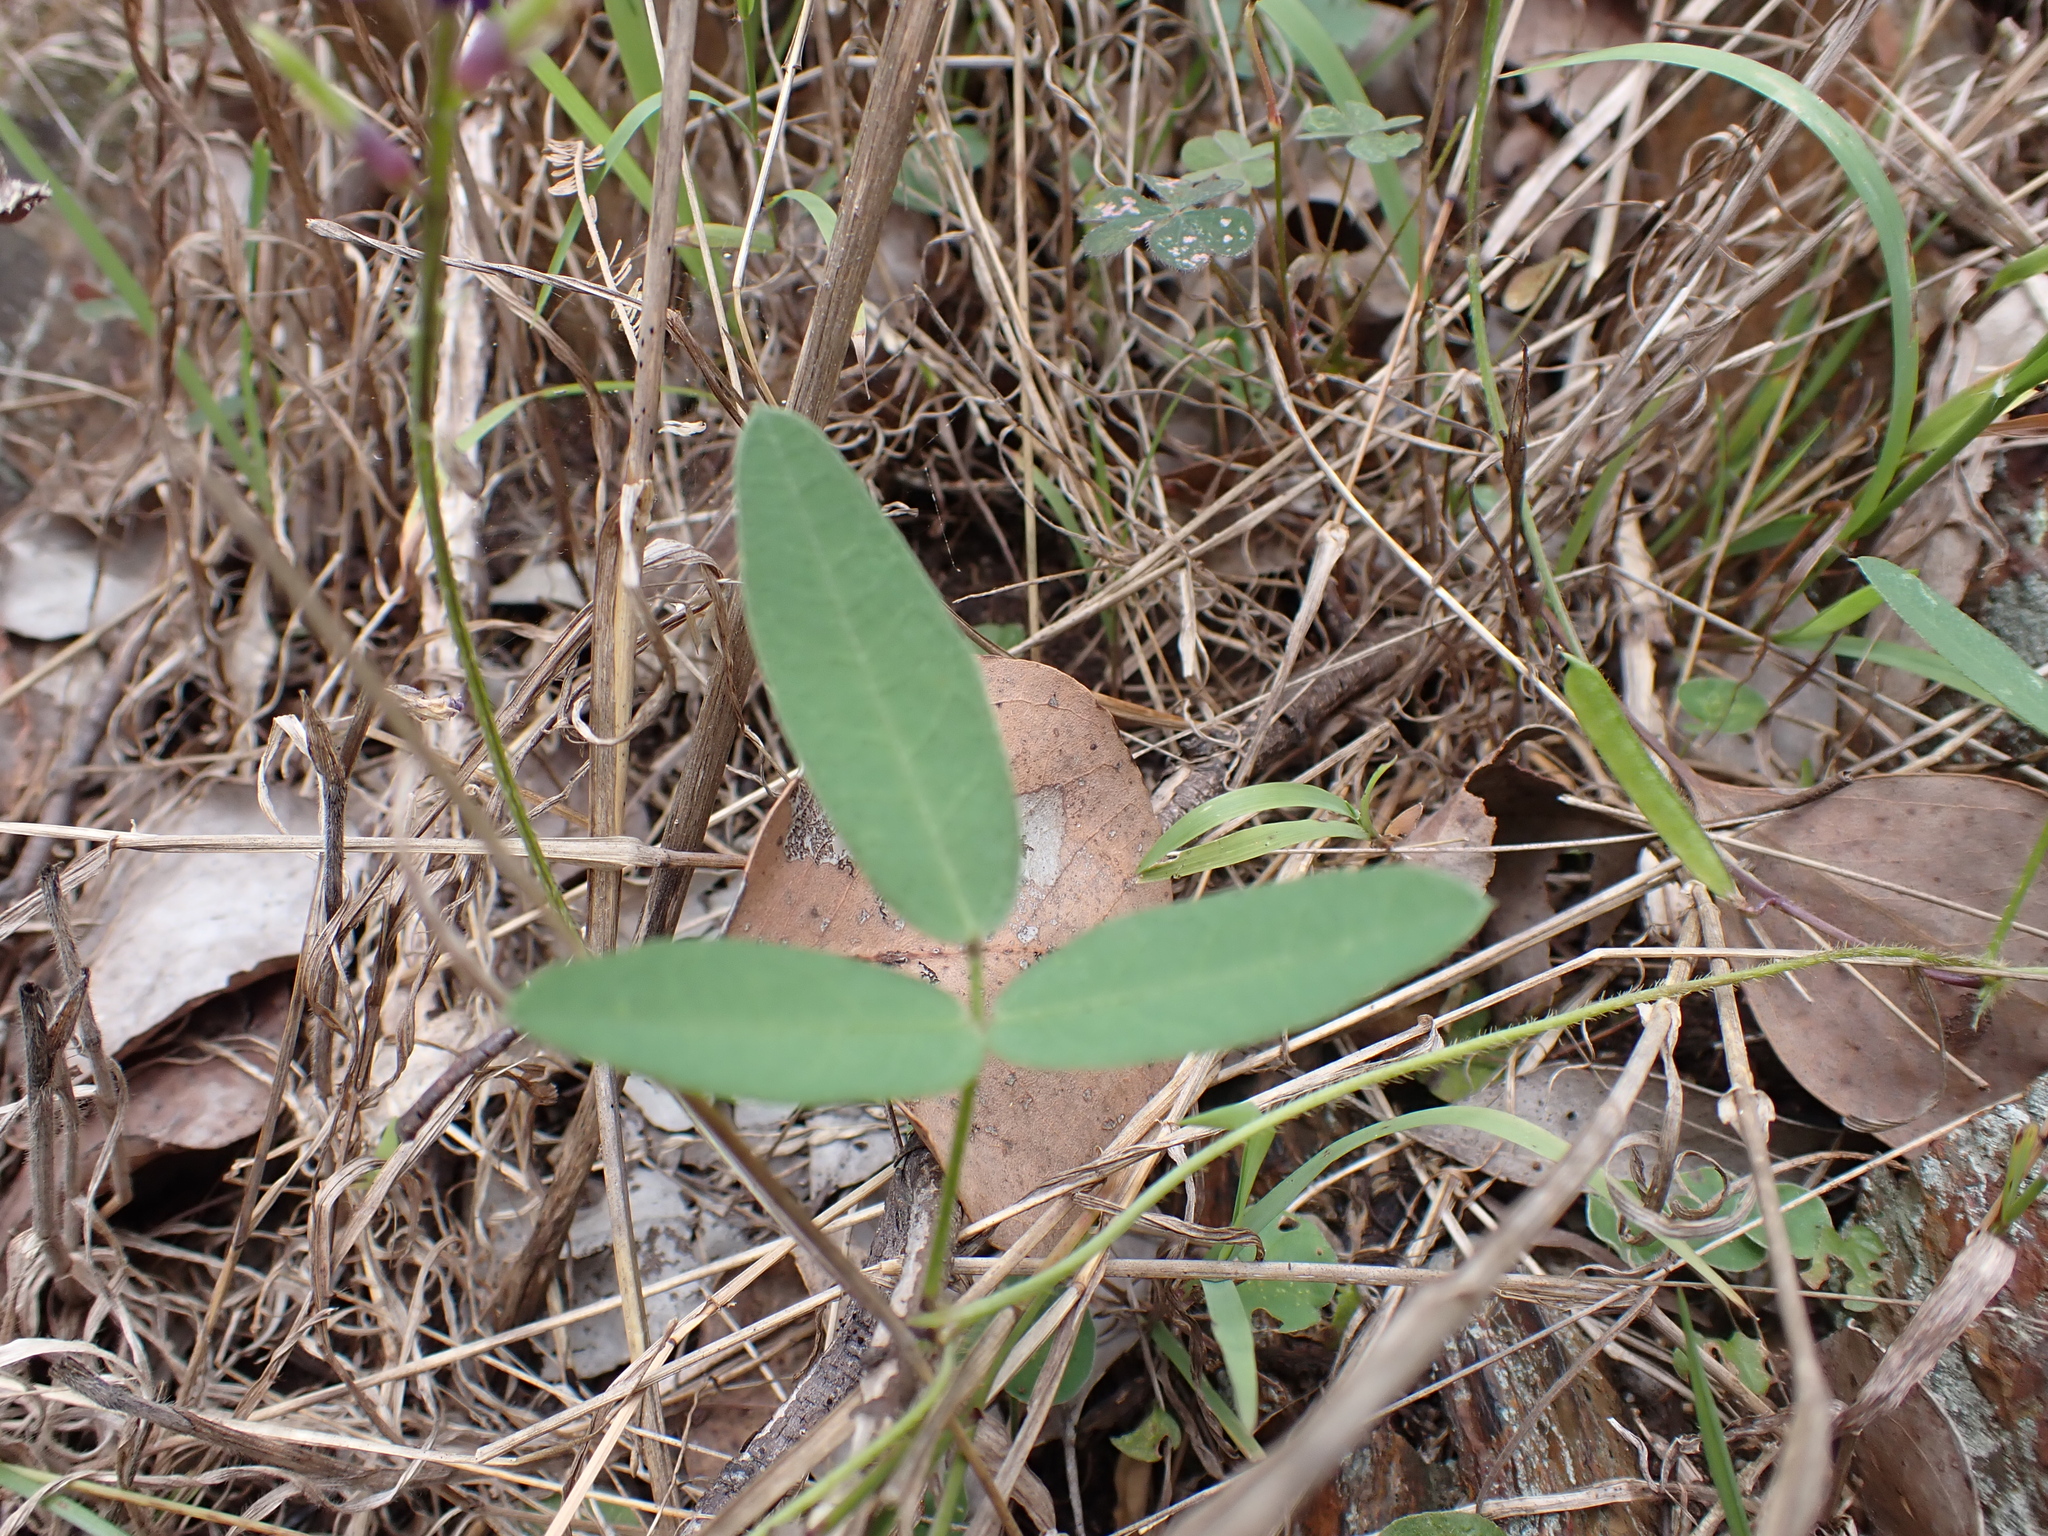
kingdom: Plantae
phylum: Tracheophyta
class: Magnoliopsida
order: Fabales
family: Fabaceae
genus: Glycine
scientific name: Glycine tabacina
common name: Pea glycine
